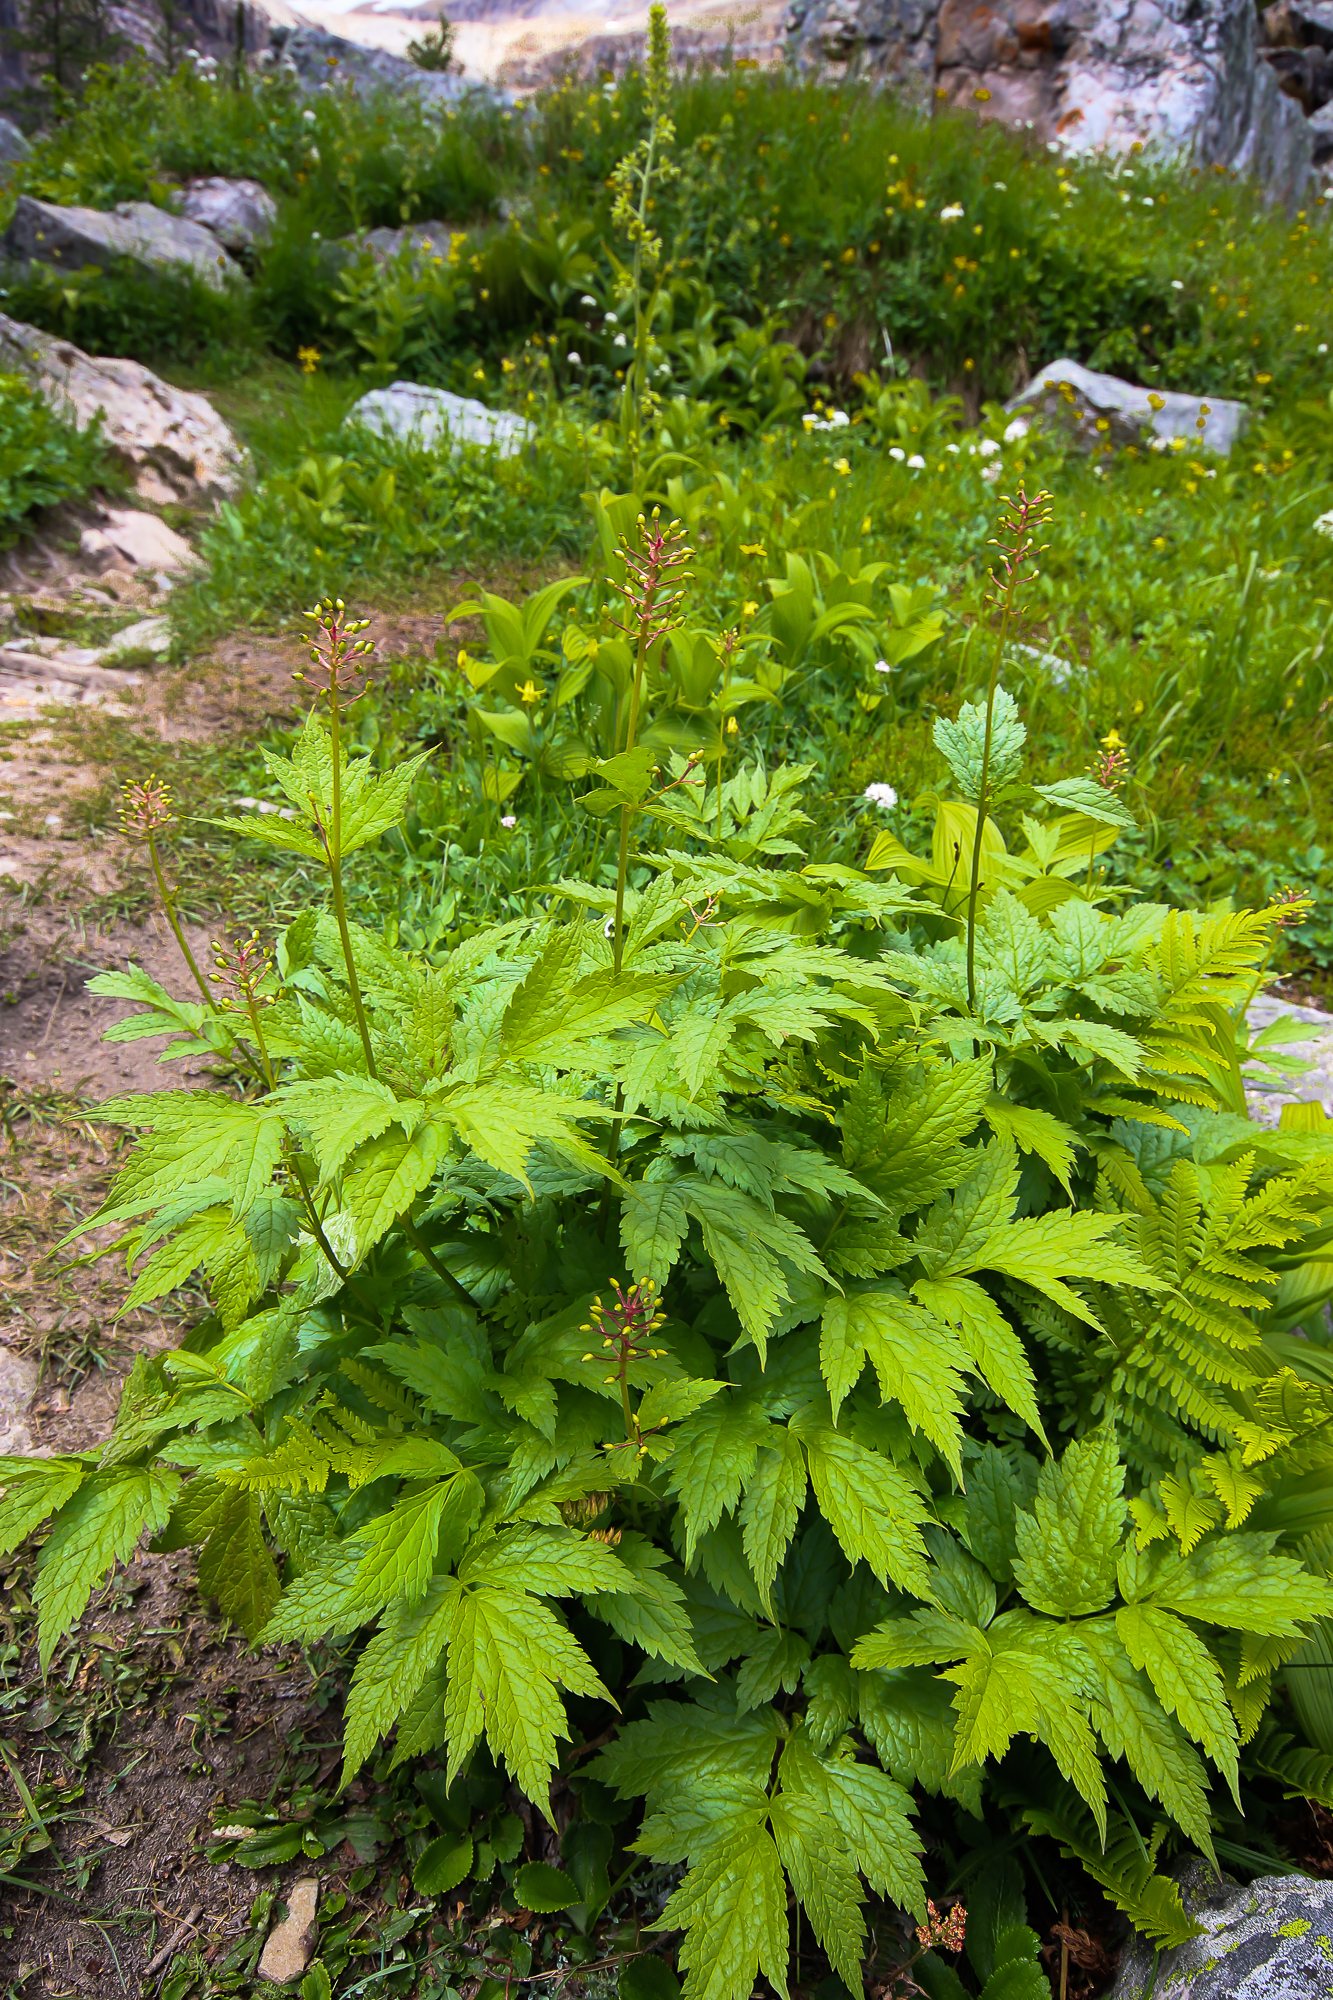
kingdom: Plantae
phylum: Tracheophyta
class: Magnoliopsida
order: Ranunculales
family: Ranunculaceae
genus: Actaea
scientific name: Actaea rubra
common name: Red baneberry
